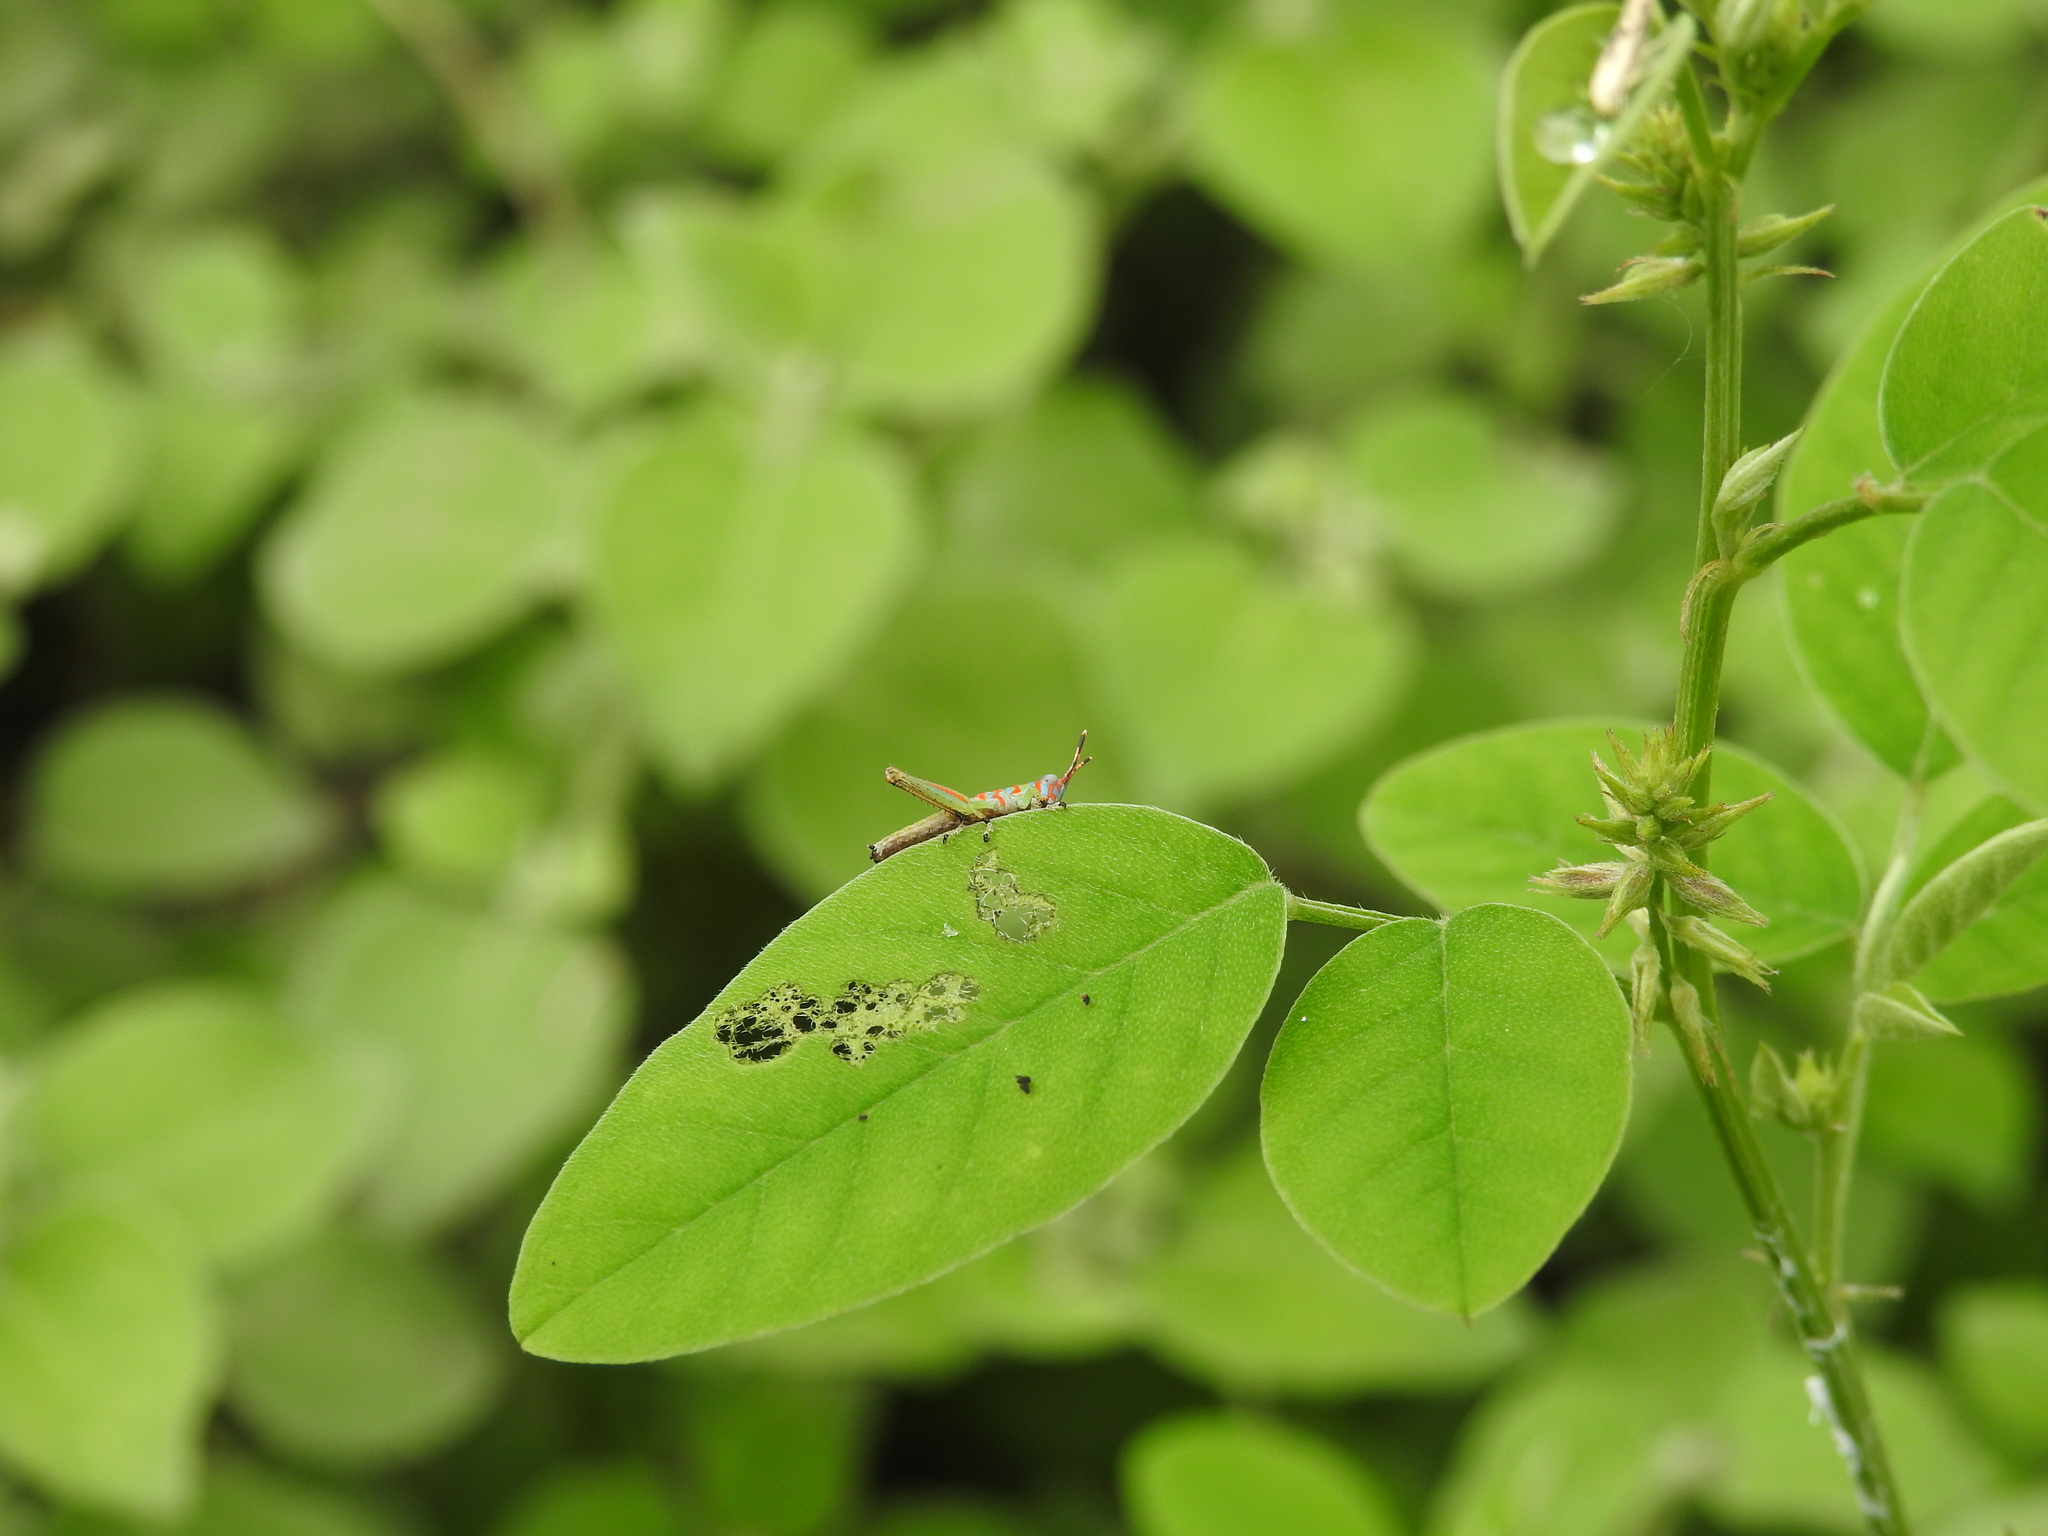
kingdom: Animalia
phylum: Arthropoda
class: Insecta
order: Orthoptera
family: Acrididae
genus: Pirithoicus
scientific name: Pirithoicus ophthalmicus
